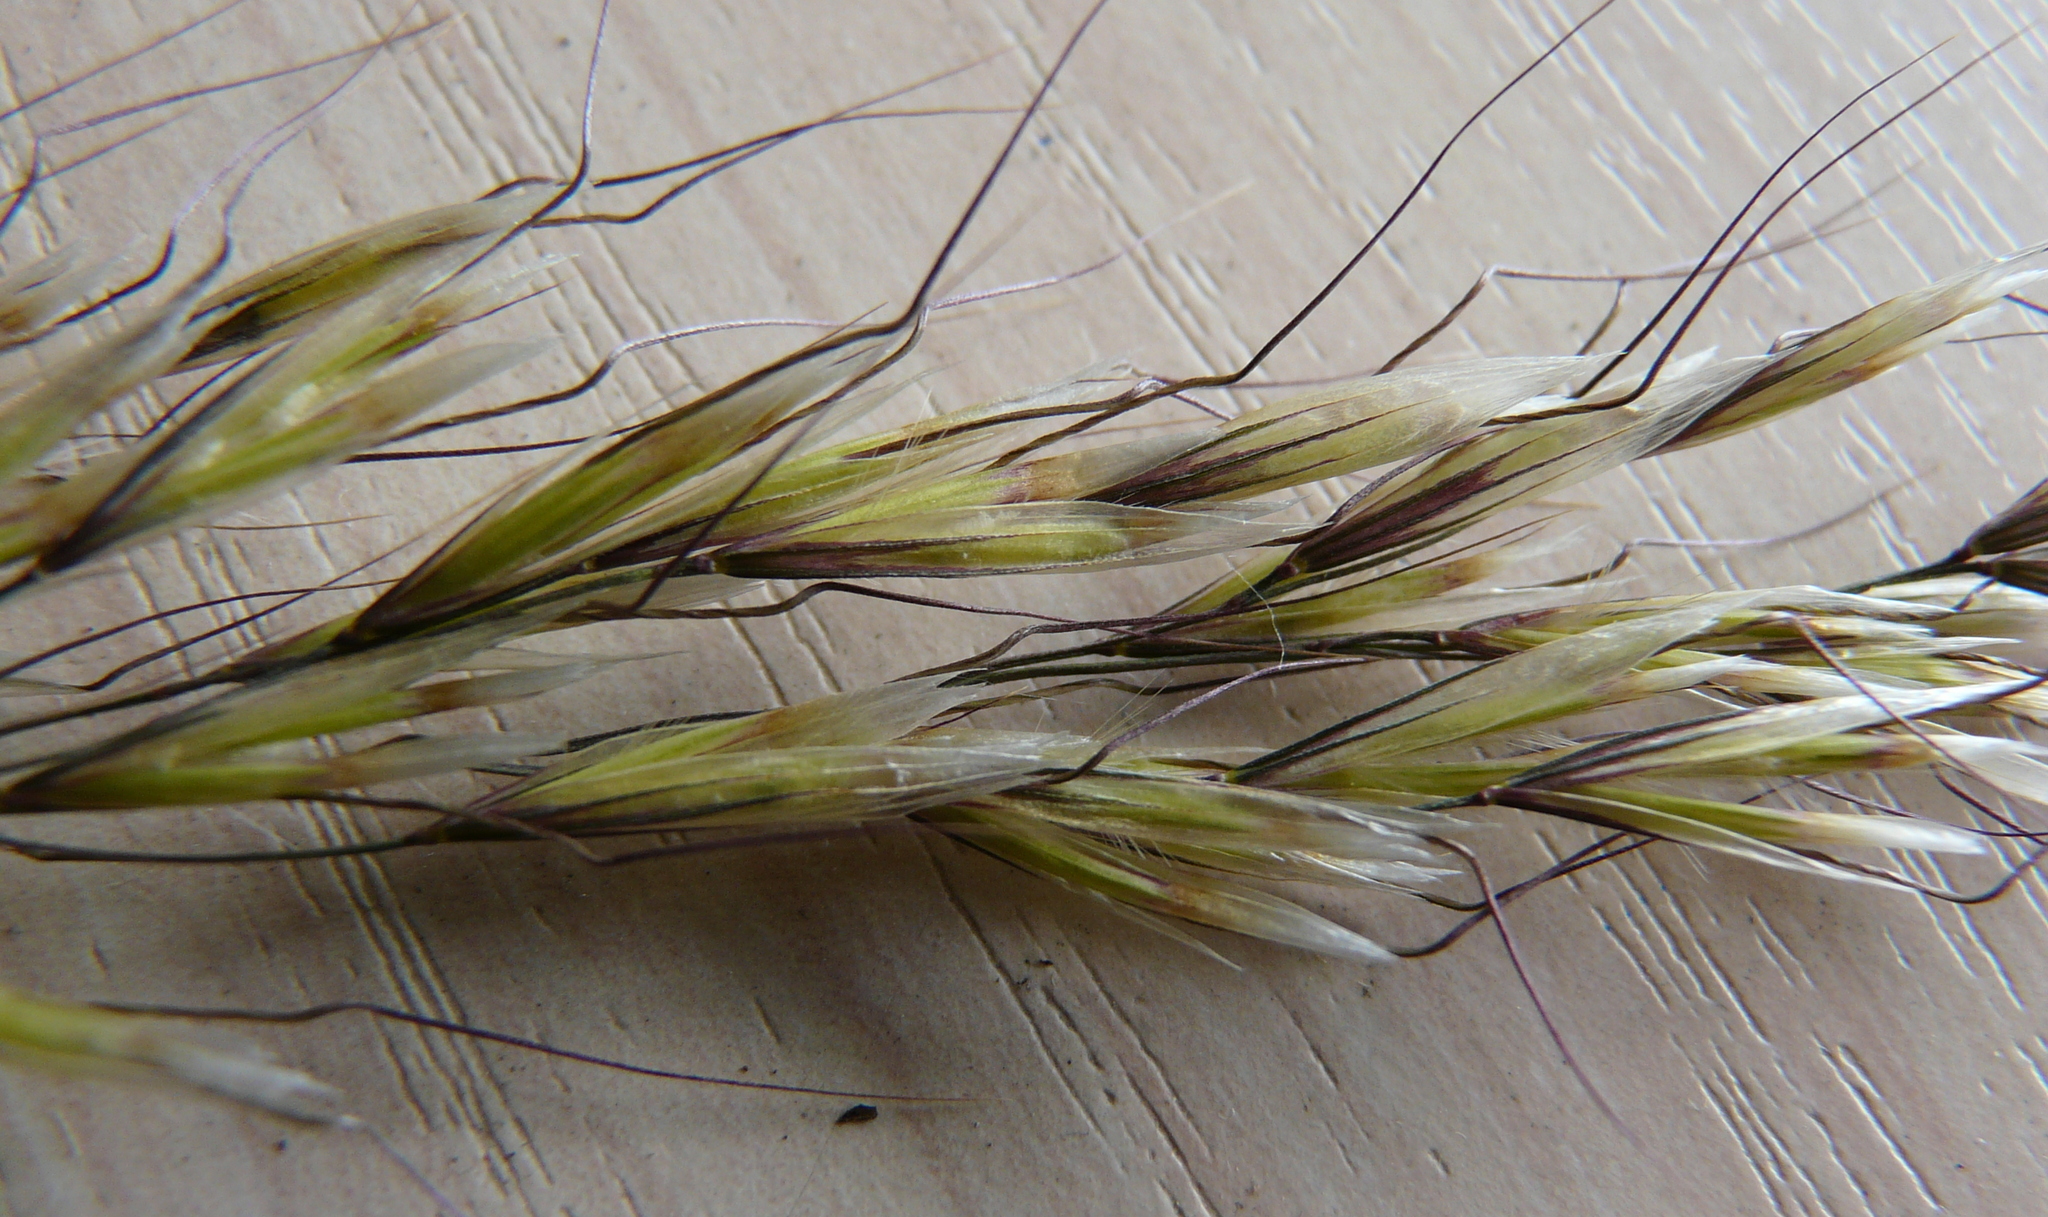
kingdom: Plantae
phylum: Tracheophyta
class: Liliopsida
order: Poales
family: Poaceae
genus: Avenula
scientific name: Avenula pubescens
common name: Downy alpine oatgrass
